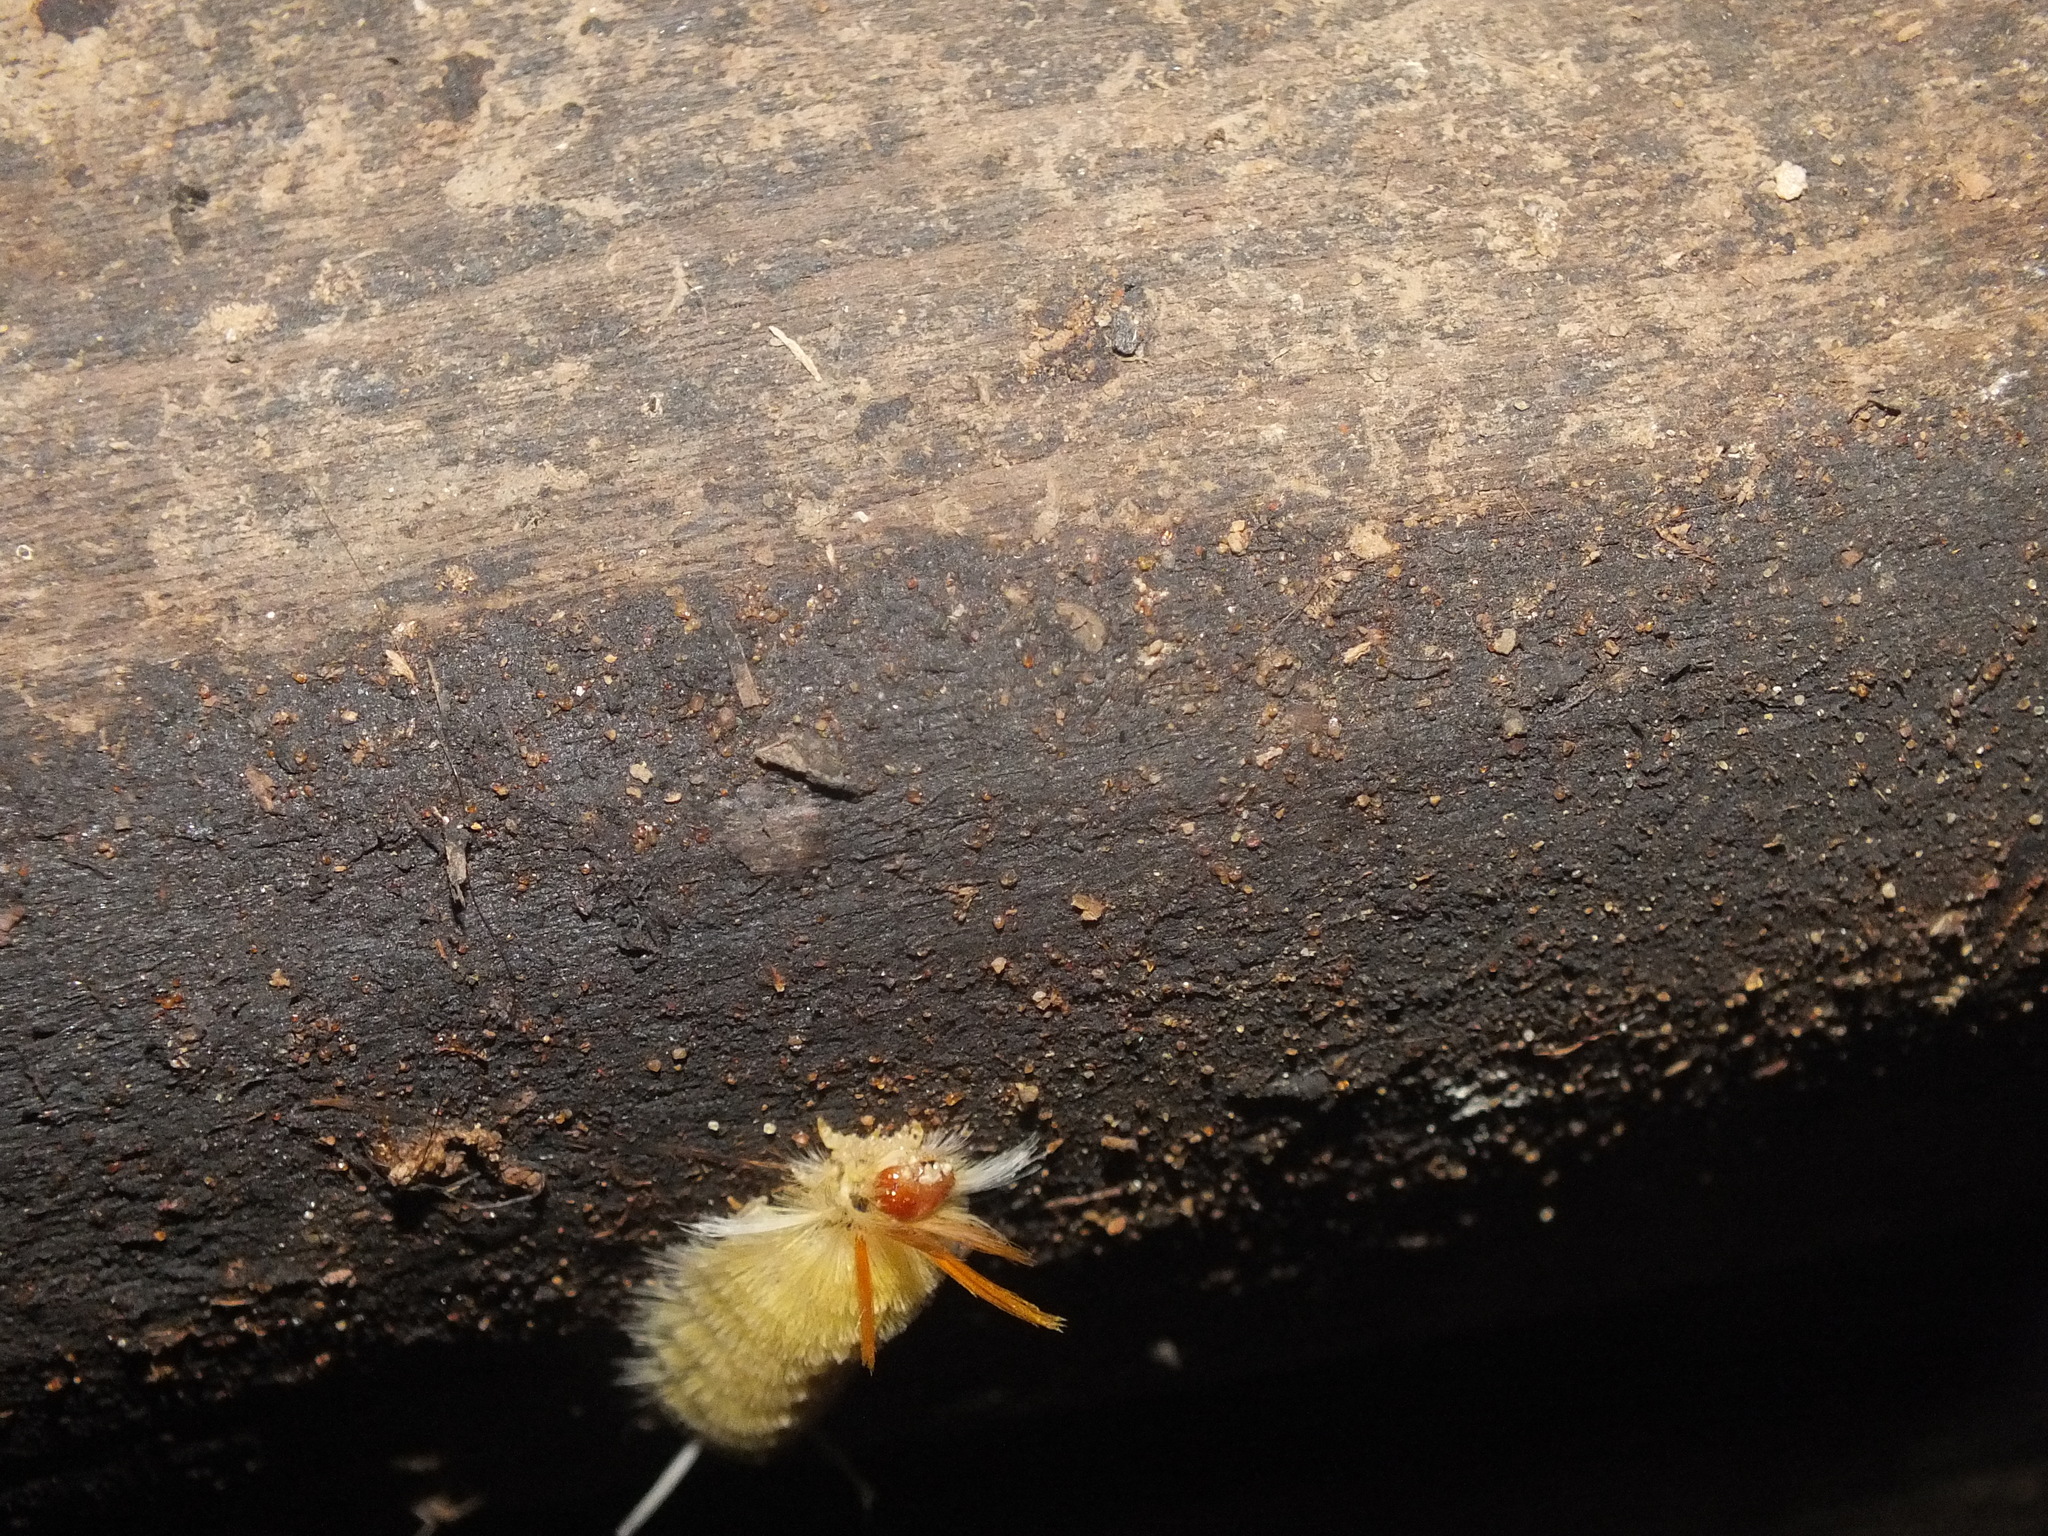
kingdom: Animalia
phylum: Arthropoda
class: Insecta
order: Lepidoptera
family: Erebidae
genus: Halysidota
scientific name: Halysidota harrisii
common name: Sycamore tussock moth
